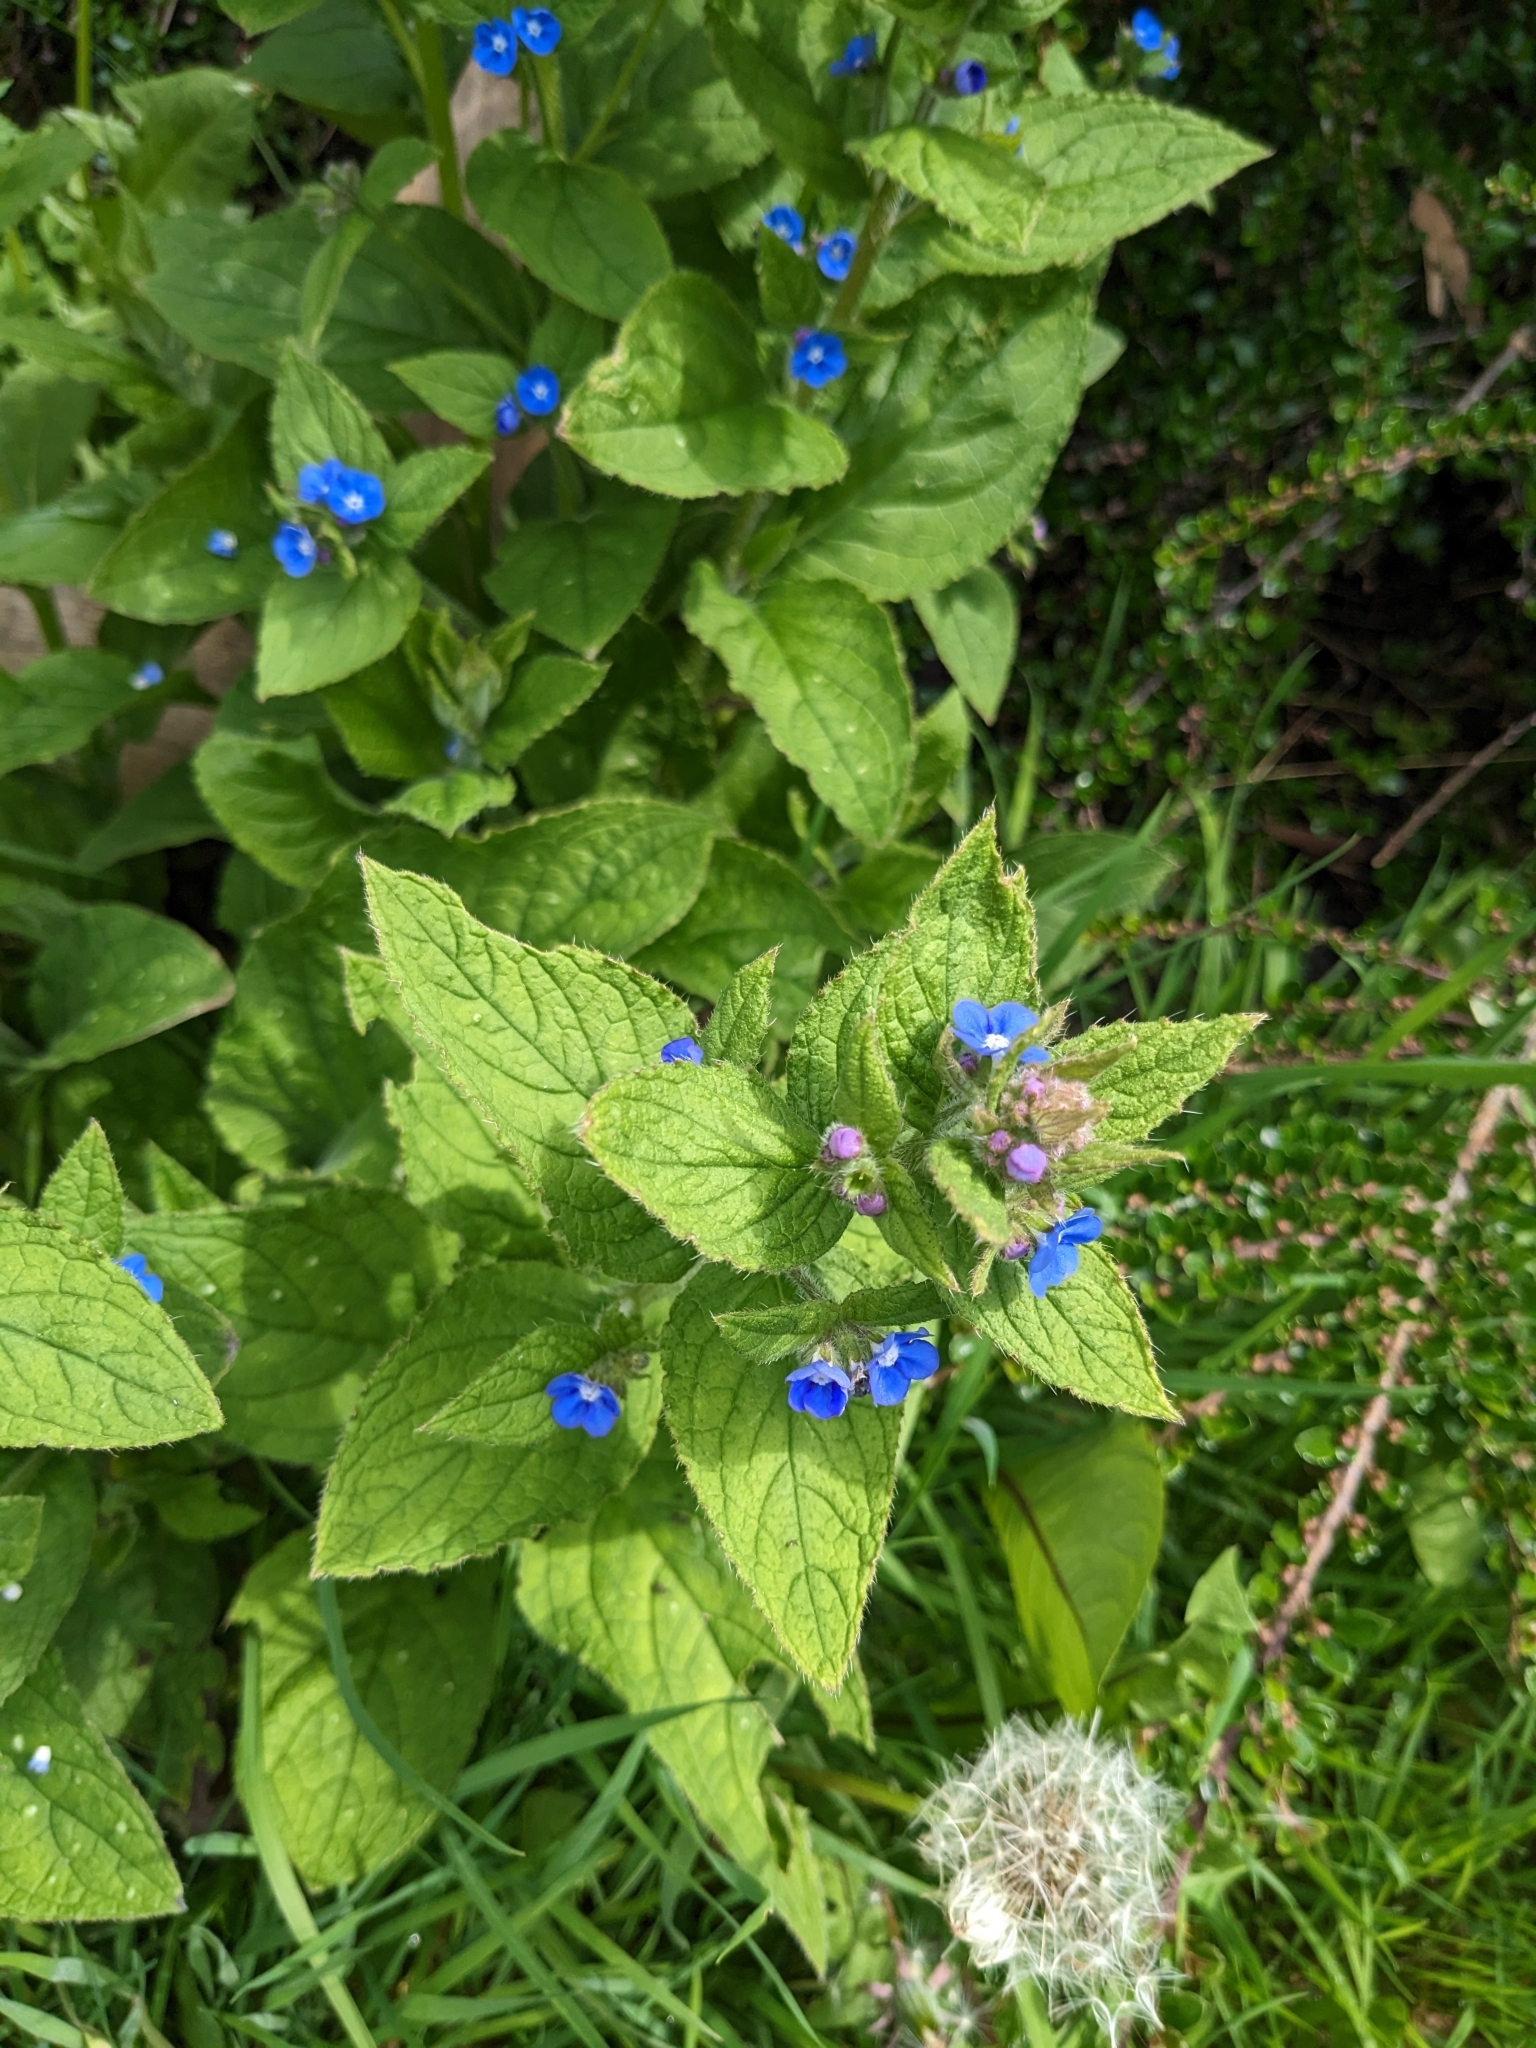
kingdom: Plantae
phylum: Tracheophyta
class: Magnoliopsida
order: Boraginales
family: Boraginaceae
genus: Pentaglottis
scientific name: Pentaglottis sempervirens
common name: Green alkanet
